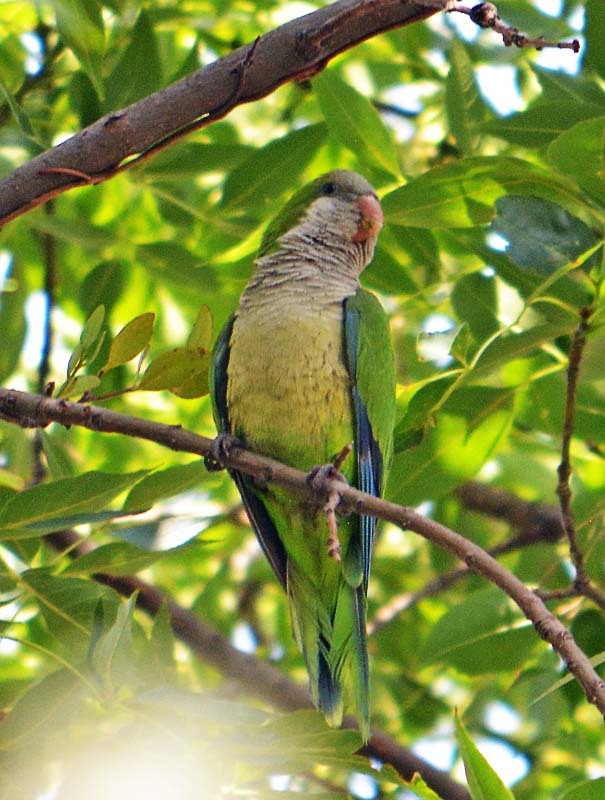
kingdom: Animalia
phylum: Chordata
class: Aves
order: Psittaciformes
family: Psittacidae
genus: Myiopsitta
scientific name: Myiopsitta monachus
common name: Monk parakeet
